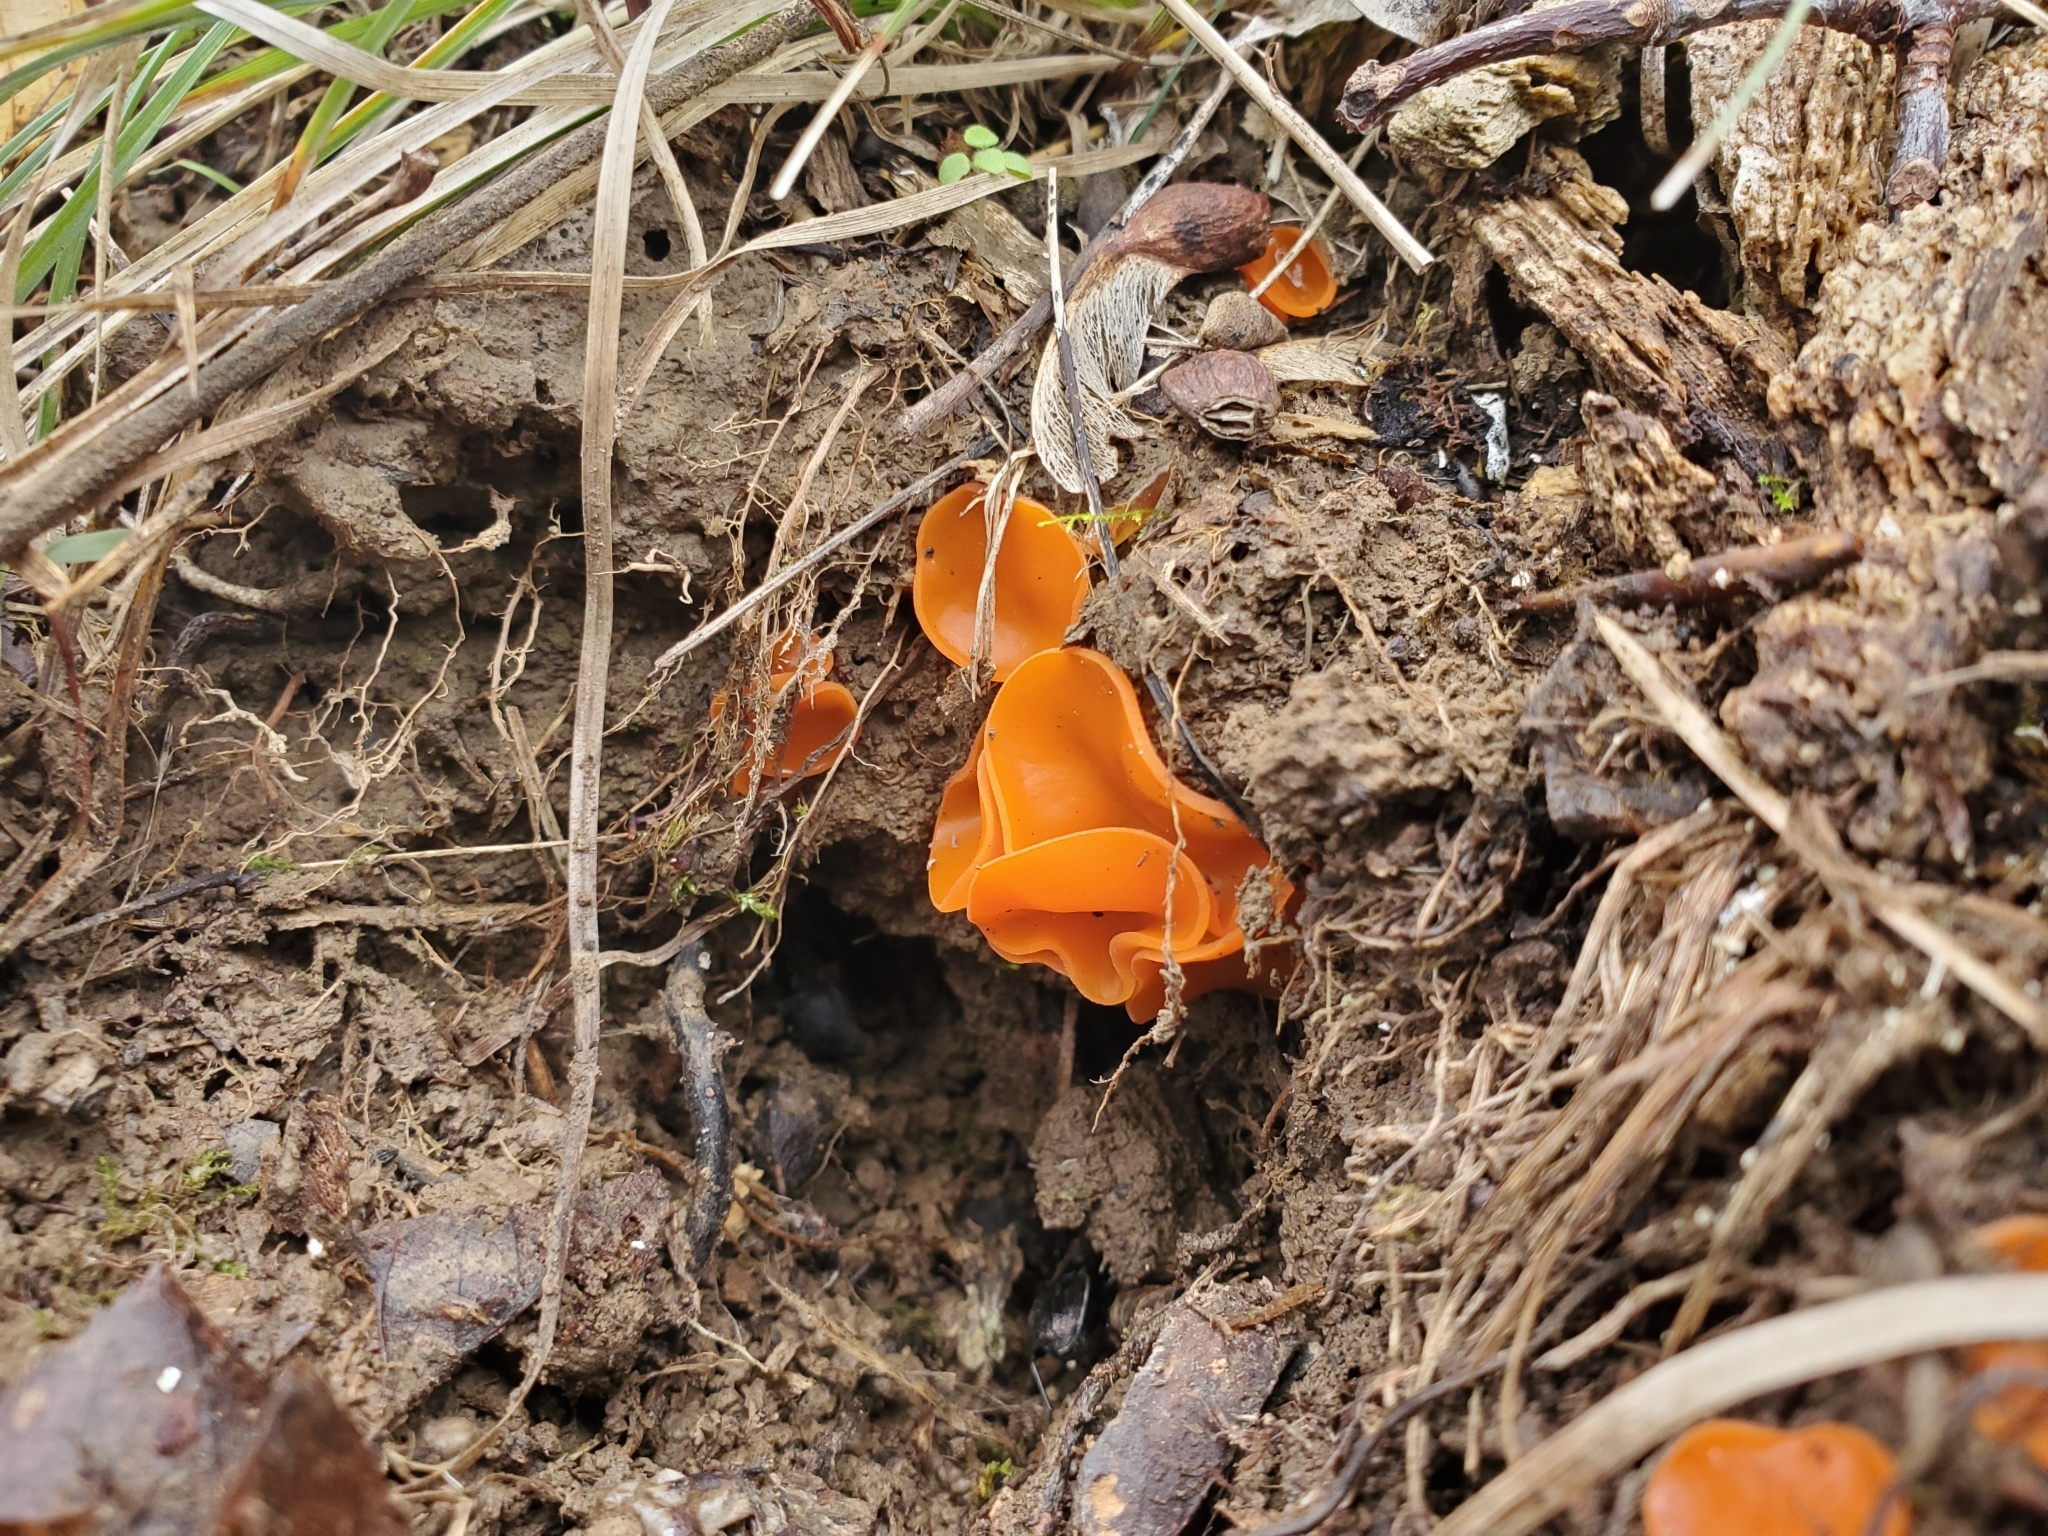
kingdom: Fungi
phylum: Ascomycota
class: Pezizomycetes
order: Pezizales
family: Pyronemataceae
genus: Aleuria
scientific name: Aleuria aurantia
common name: Orange peel fungus
